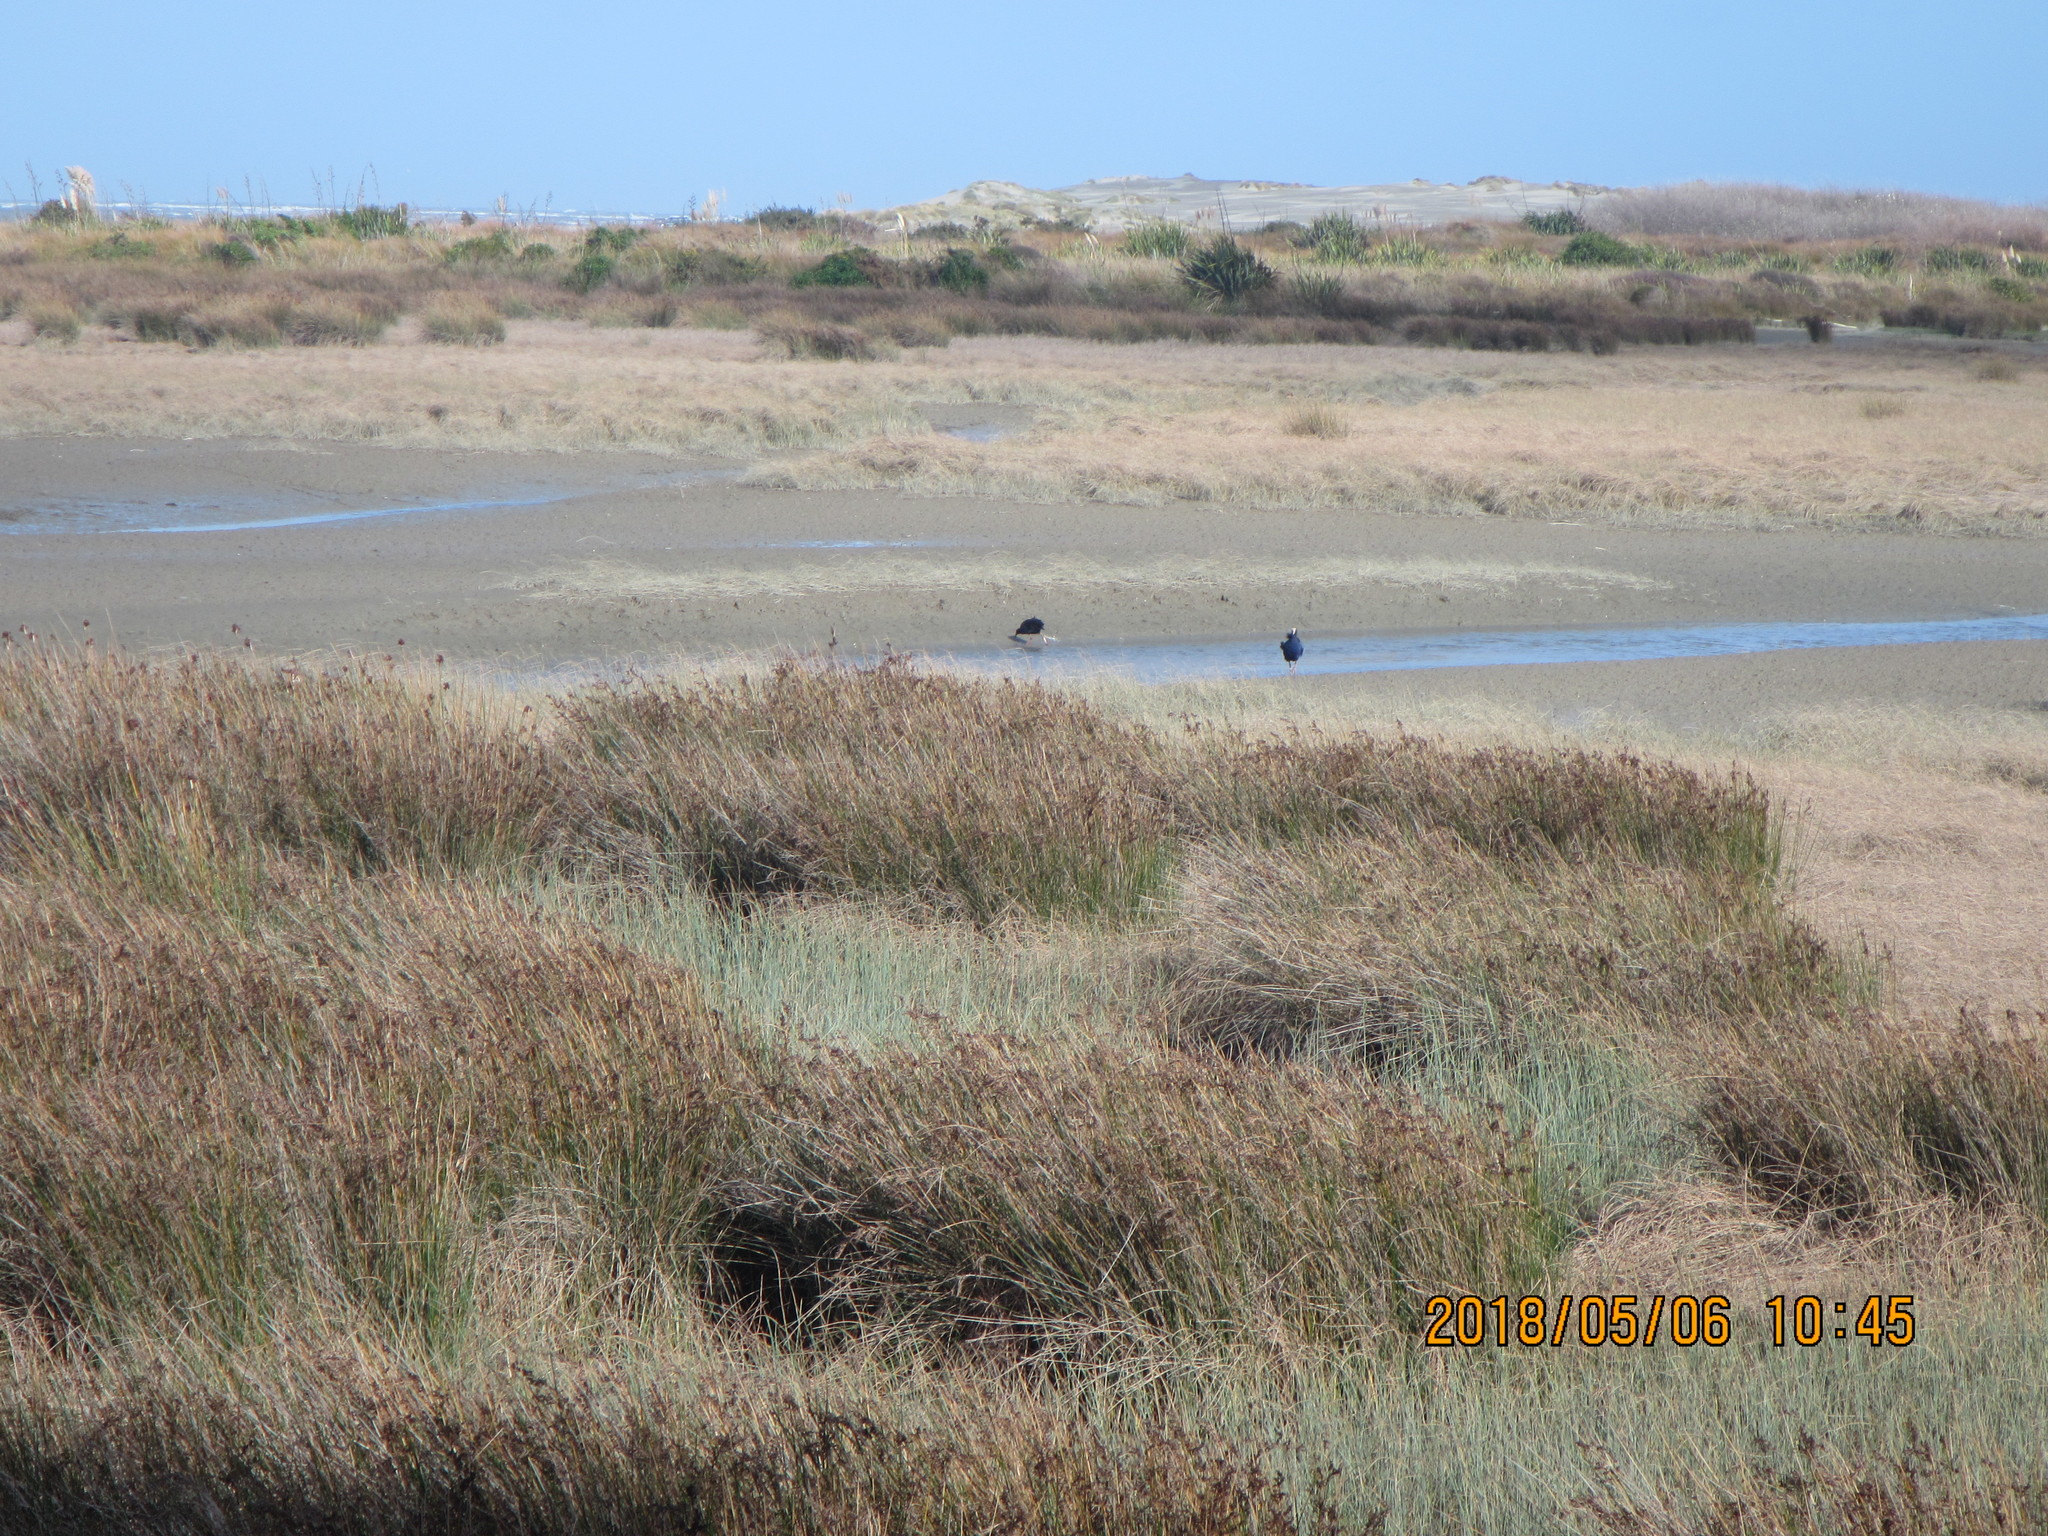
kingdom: Animalia
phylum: Chordata
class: Aves
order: Gruiformes
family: Rallidae
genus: Porphyrio
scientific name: Porphyrio melanotus
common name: Australasian swamphen
